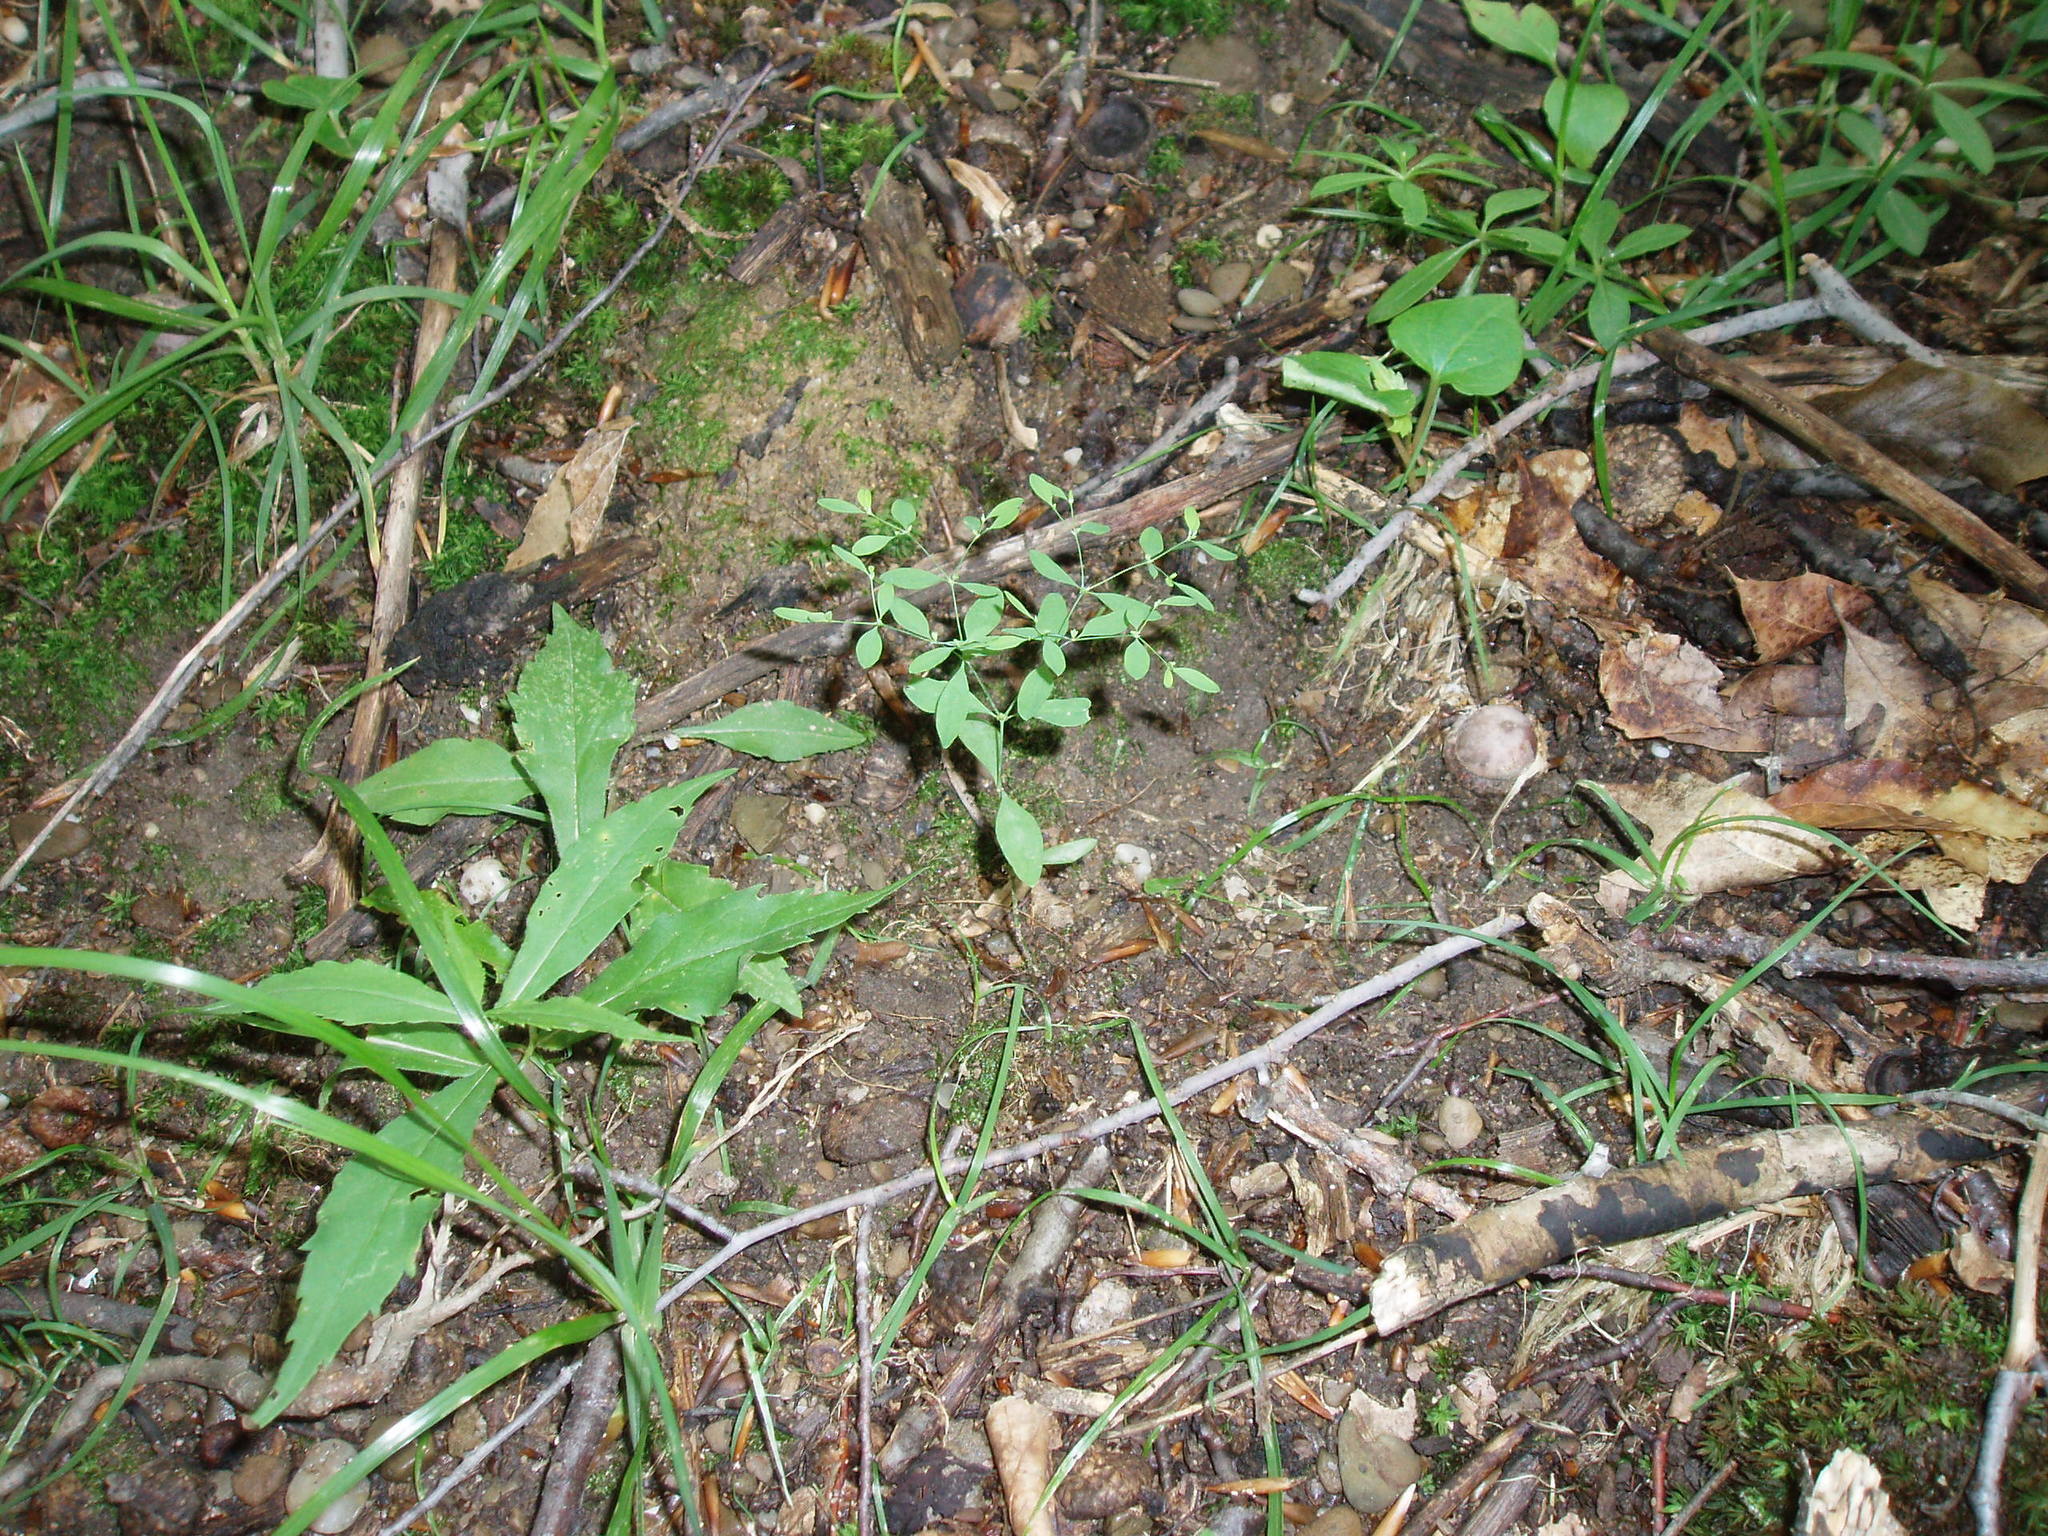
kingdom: Plantae
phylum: Tracheophyta
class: Magnoliopsida
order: Caryophyllales
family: Caryophyllaceae
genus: Paronychia
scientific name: Paronychia canadensis
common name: Canada forked nailwort
